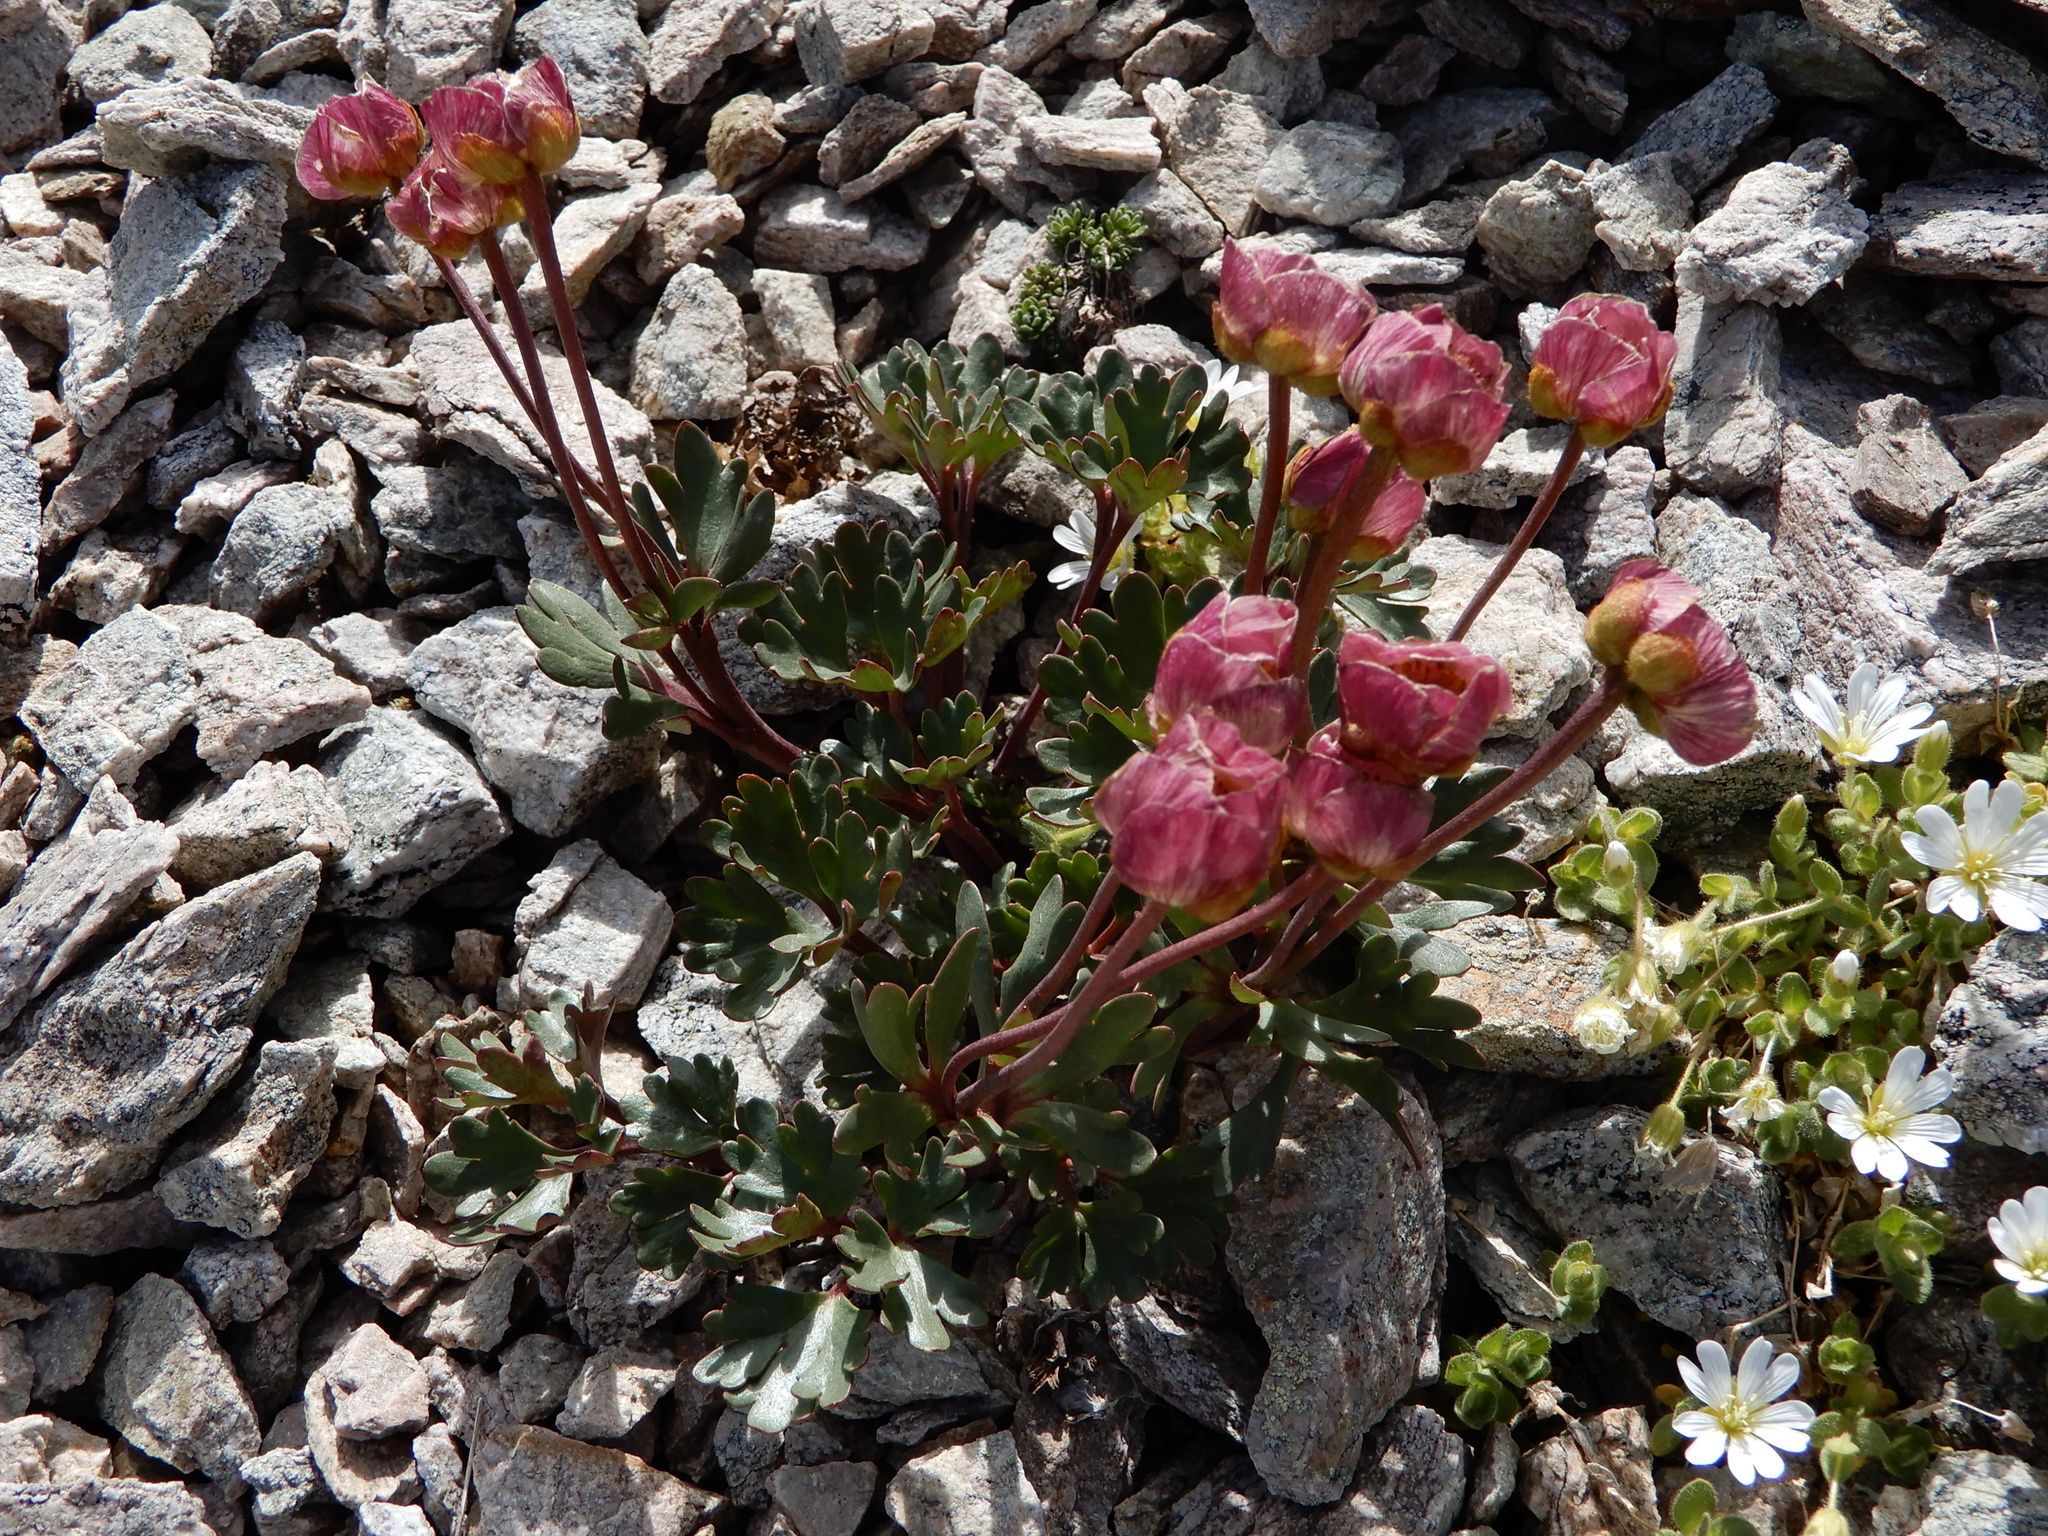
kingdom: Plantae
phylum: Tracheophyta
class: Magnoliopsida
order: Ranunculales
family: Ranunculaceae
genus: Ranunculus
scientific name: Ranunculus glacialis
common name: Glacier buttercup
